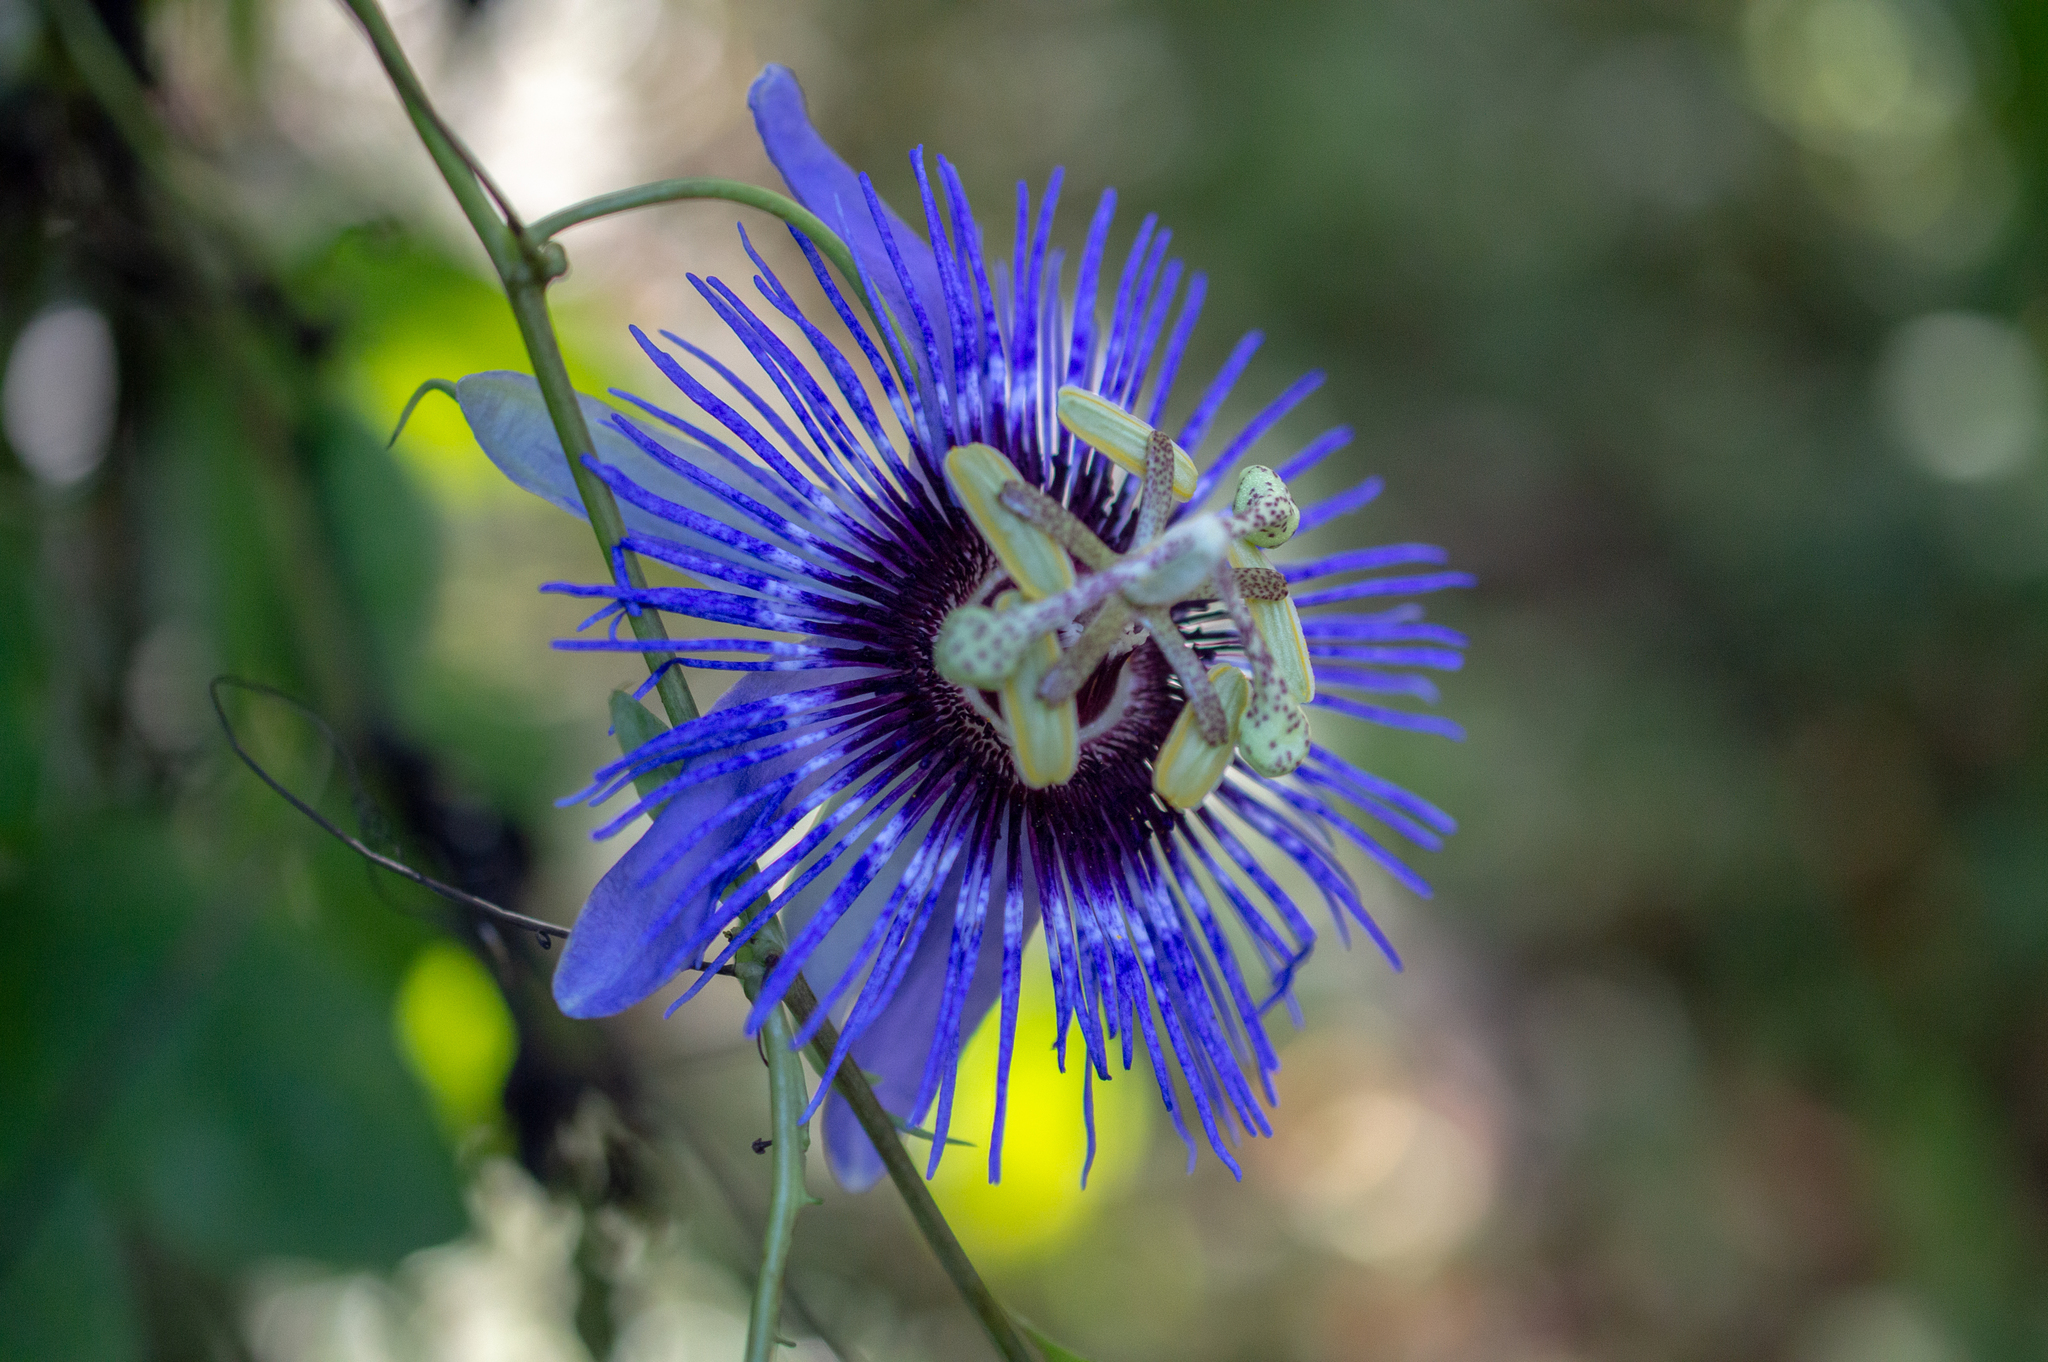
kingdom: Plantae
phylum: Tracheophyta
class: Magnoliopsida
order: Malpighiales
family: Passifloraceae
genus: Passiflora
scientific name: Passiflora amethystina
